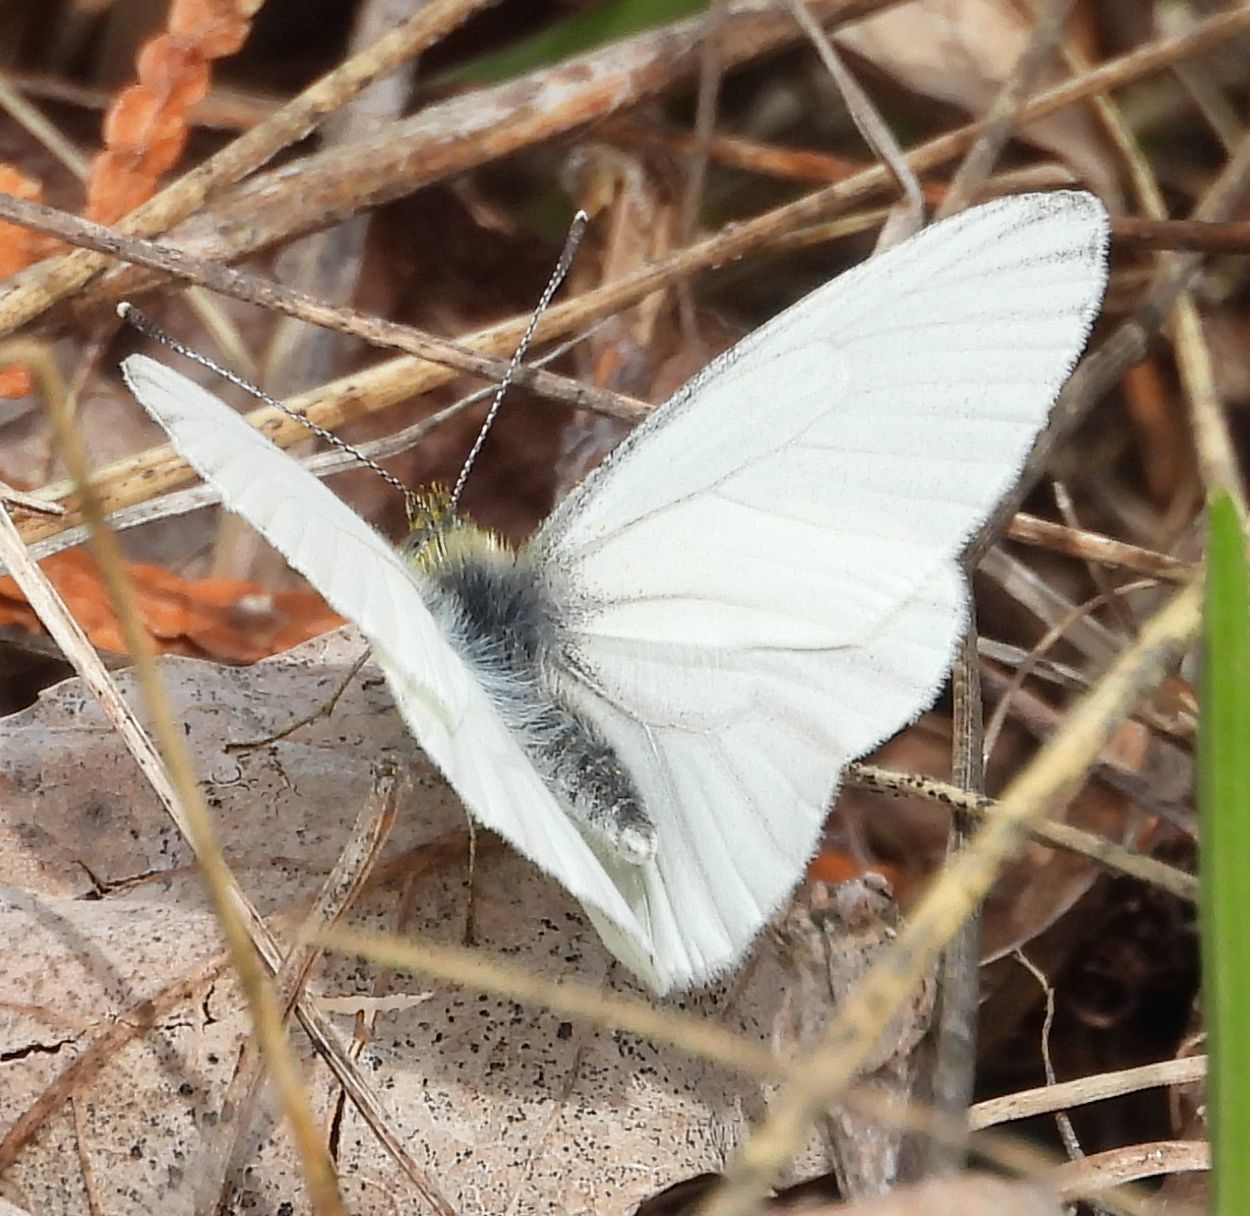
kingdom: Animalia
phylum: Arthropoda
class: Insecta
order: Lepidoptera
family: Pieridae
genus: Pieris
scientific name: Pieris oleracea
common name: Mustard white
